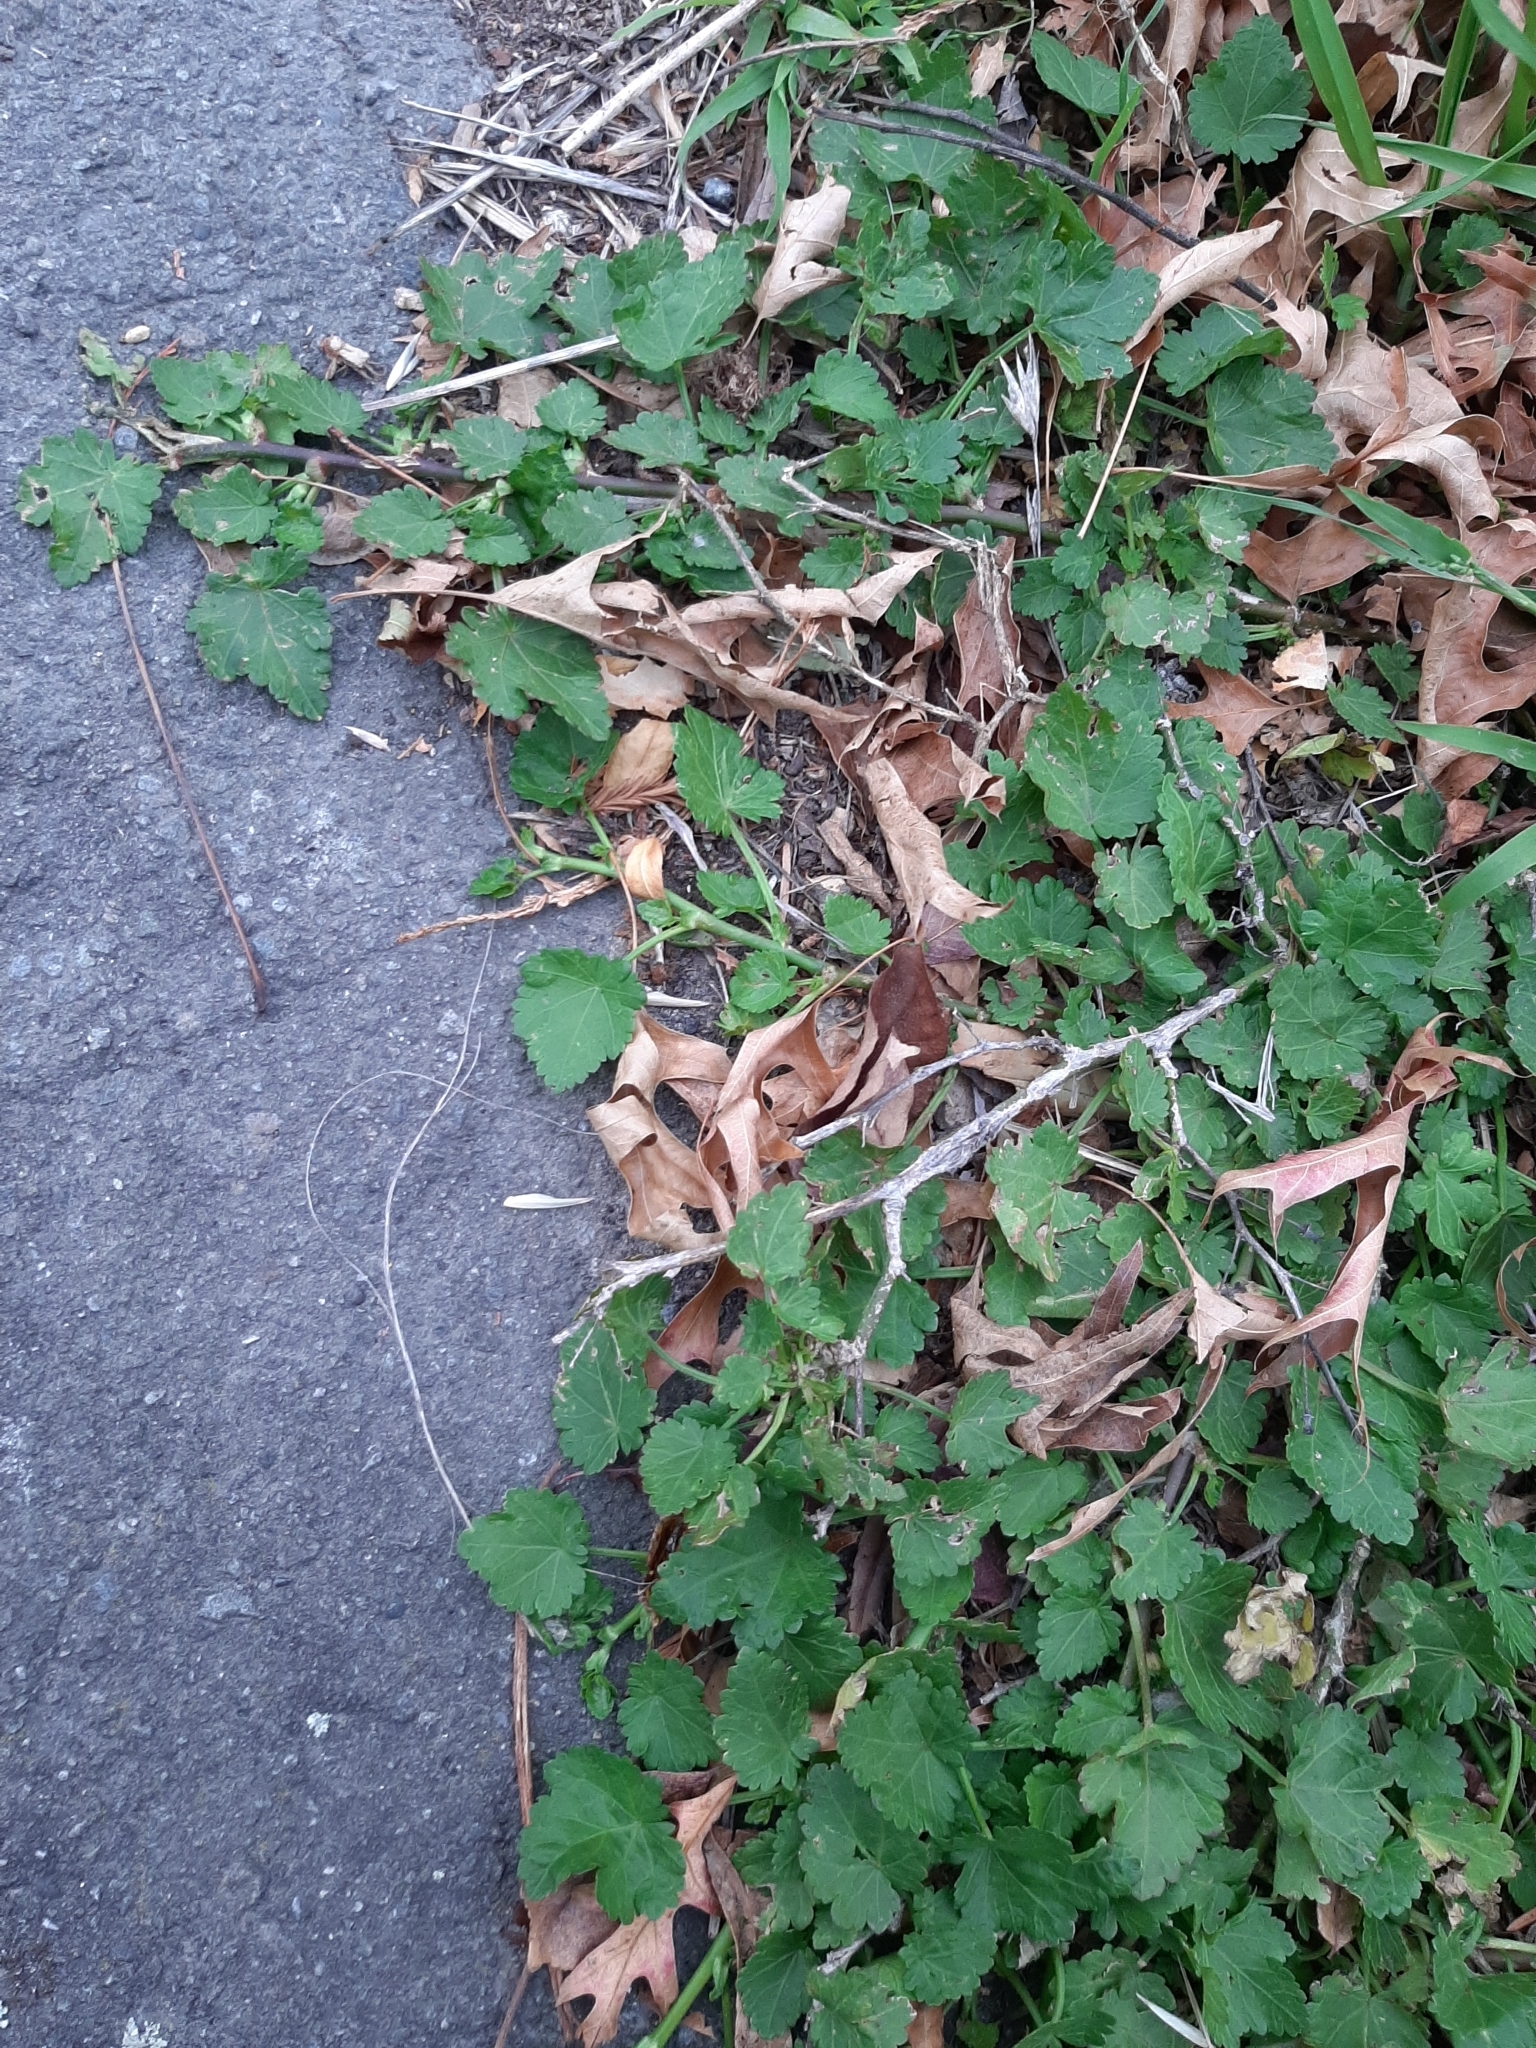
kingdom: Plantae
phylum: Tracheophyta
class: Magnoliopsida
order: Malvales
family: Malvaceae
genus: Modiola
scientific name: Modiola caroliniana
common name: Carolina bristlemallow
